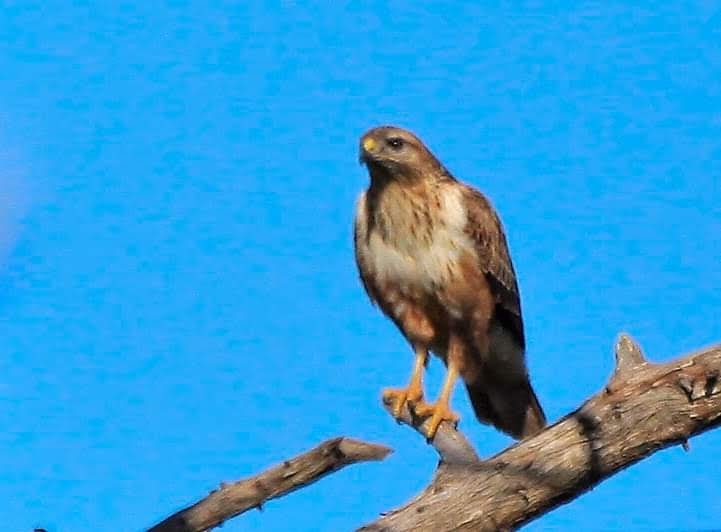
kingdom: Animalia
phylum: Chordata
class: Aves
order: Accipitriformes
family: Accipitridae
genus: Buteo
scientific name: Buteo rufinus
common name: Long-legged buzzard
